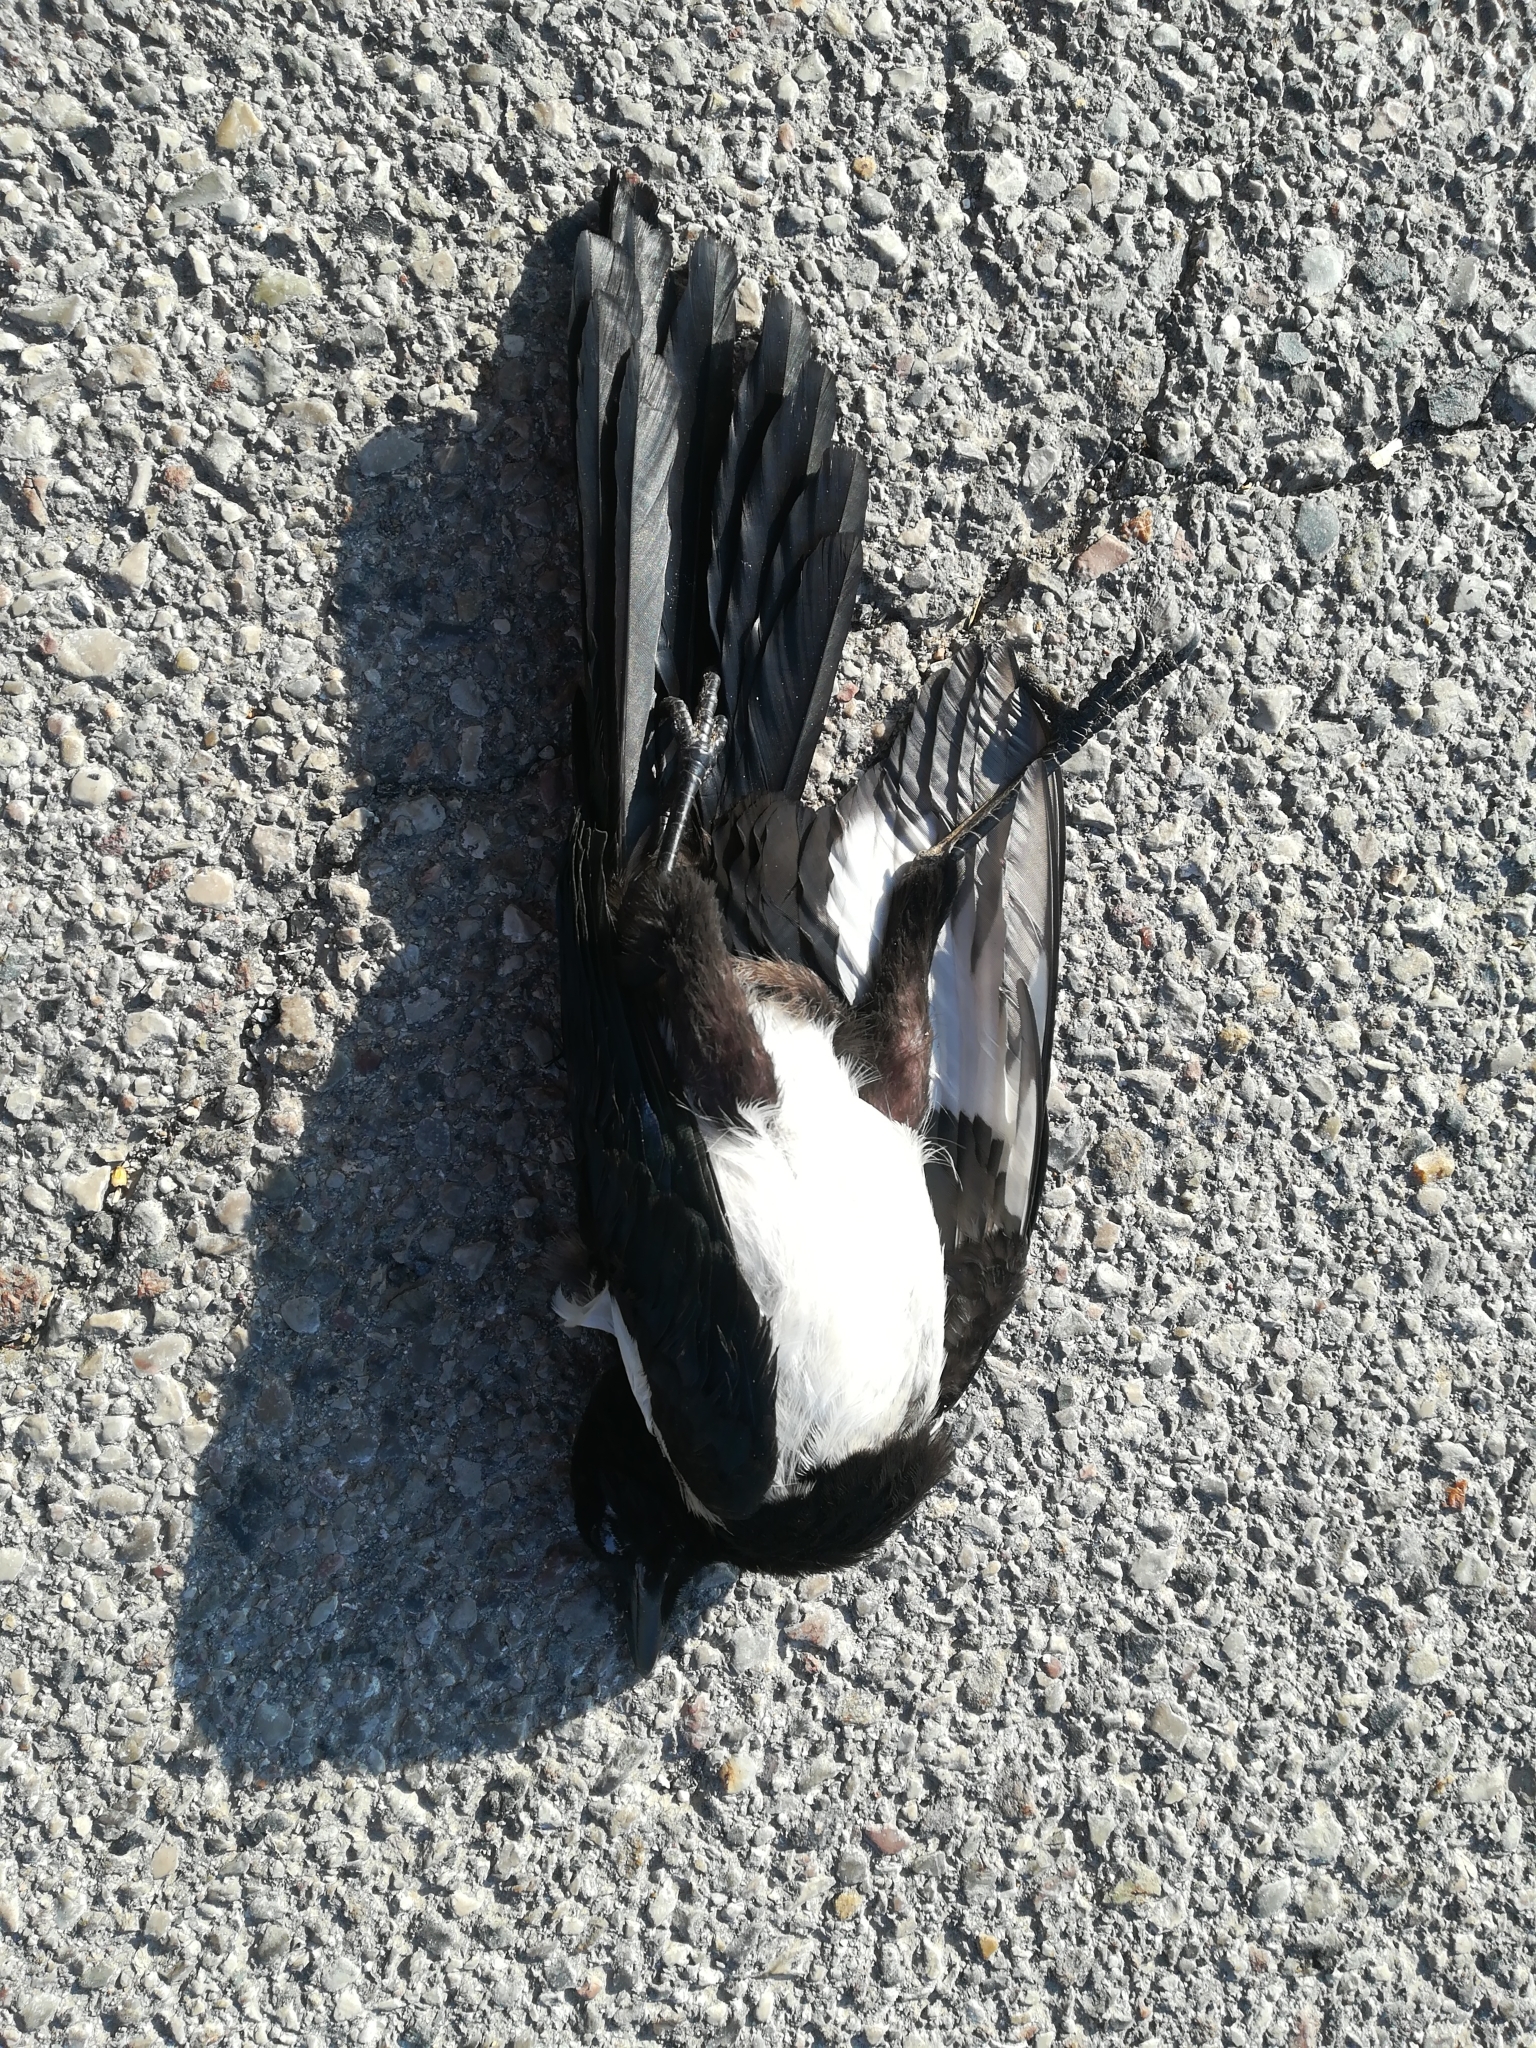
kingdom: Animalia
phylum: Chordata
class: Aves
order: Passeriformes
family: Corvidae
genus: Pica
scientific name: Pica pica
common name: Eurasian magpie
